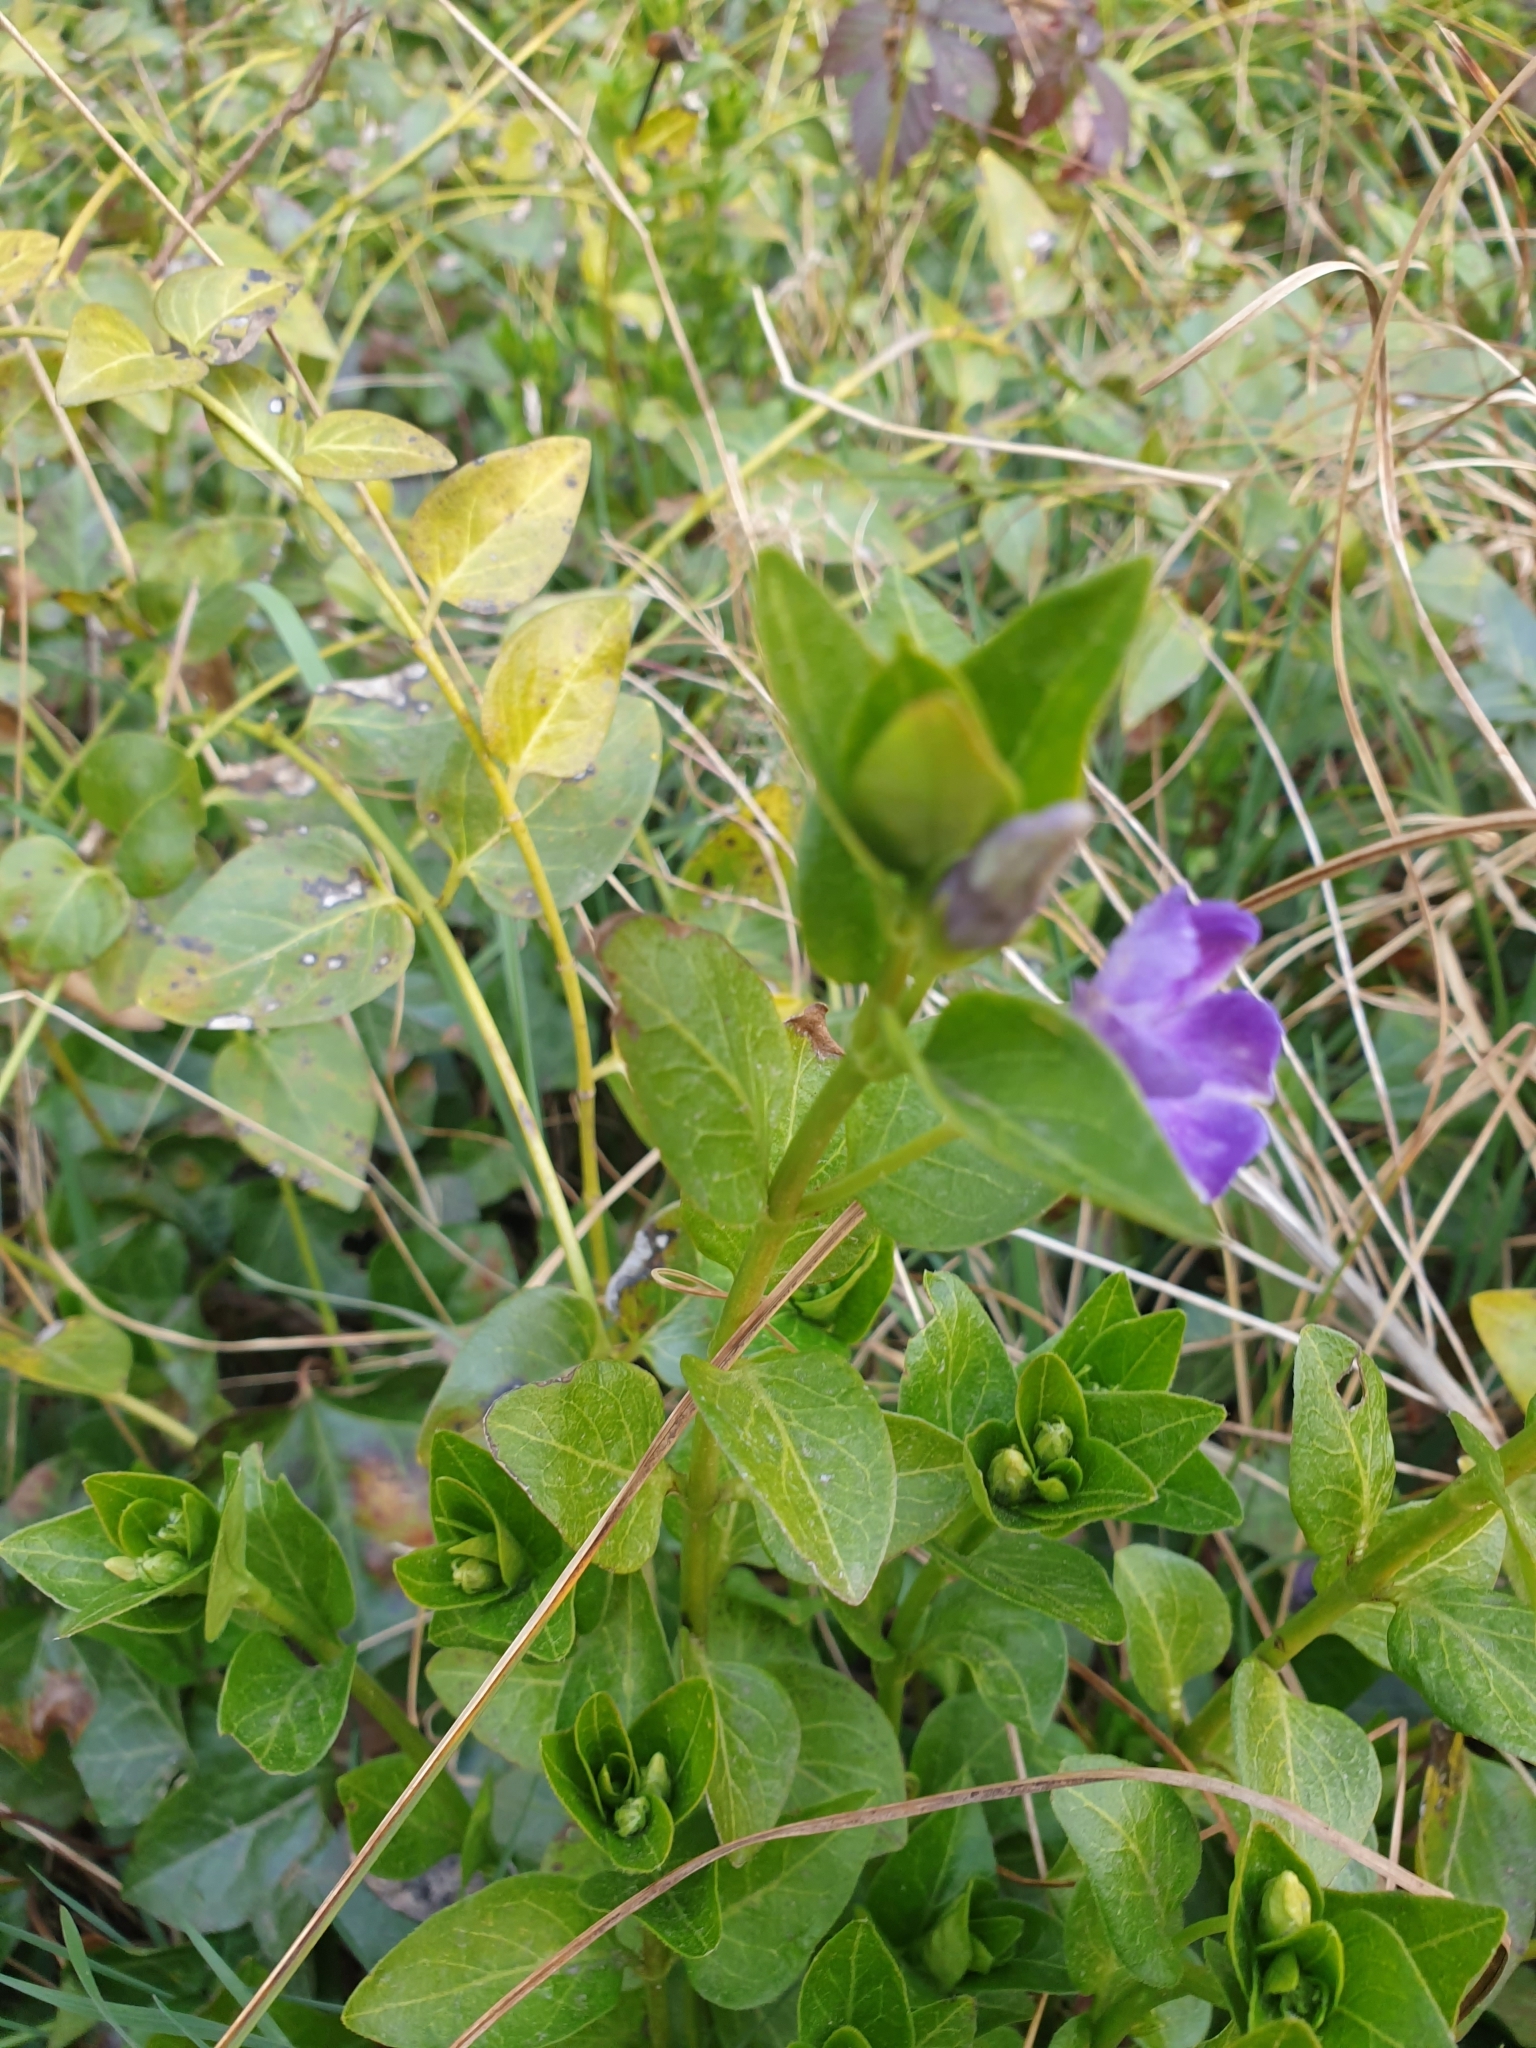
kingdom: Plantae
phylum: Tracheophyta
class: Magnoliopsida
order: Gentianales
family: Apocynaceae
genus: Vinca
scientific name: Vinca major
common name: Greater periwinkle
